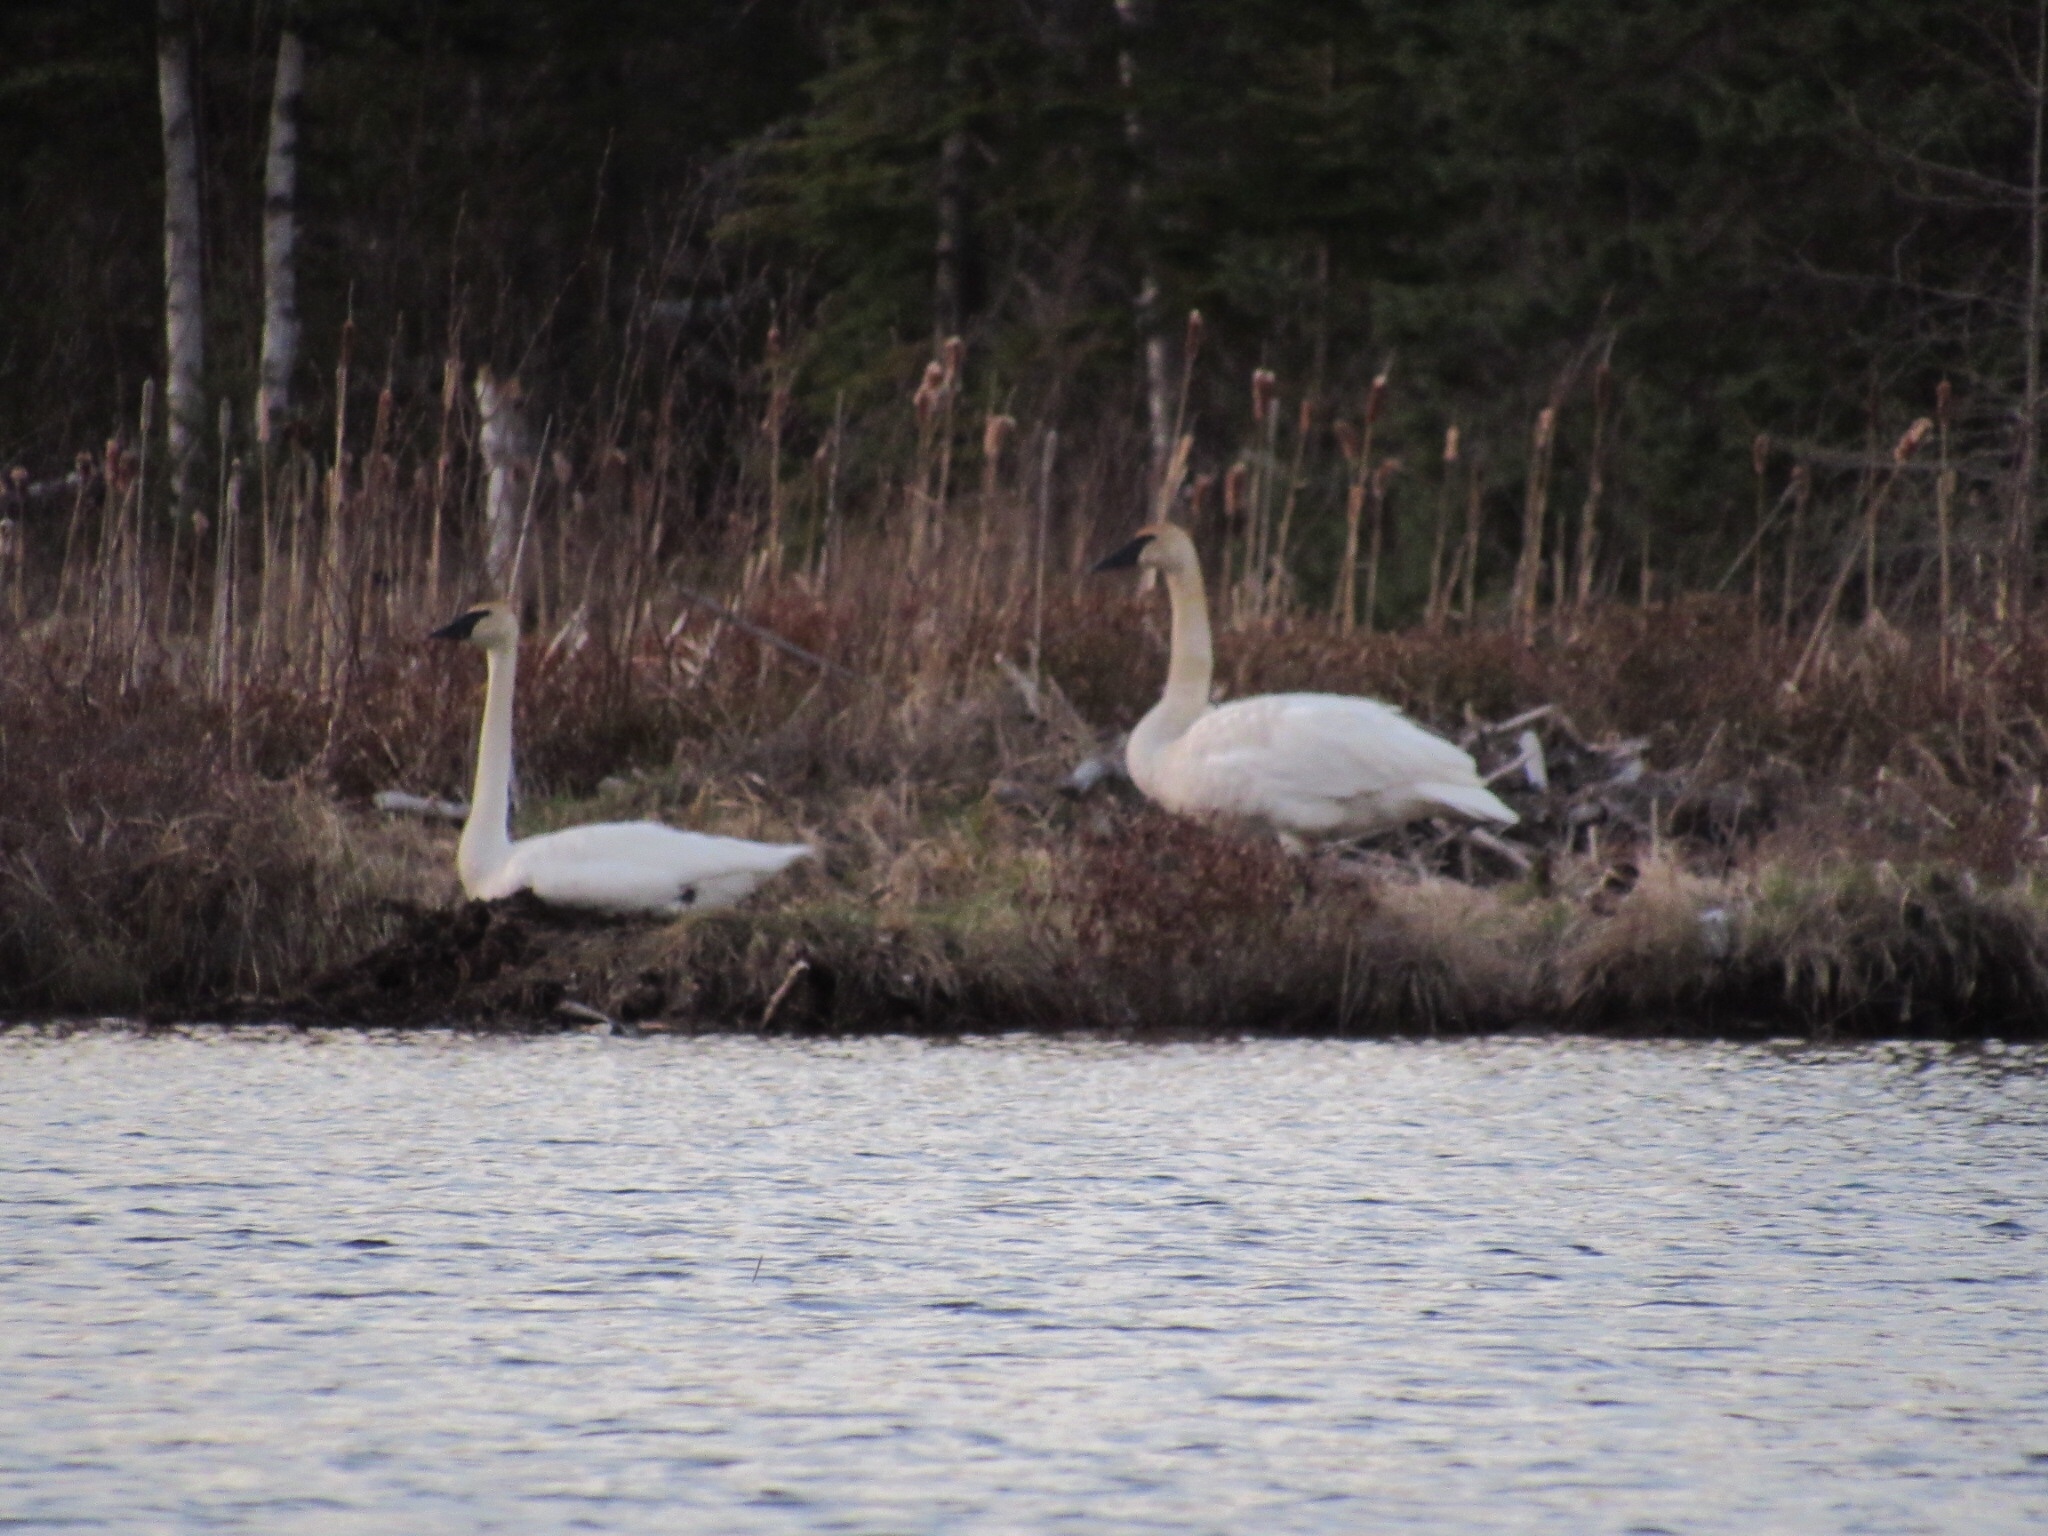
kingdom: Animalia
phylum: Chordata
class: Aves
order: Anseriformes
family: Anatidae
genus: Cygnus
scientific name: Cygnus buccinator
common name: Trumpeter swan
